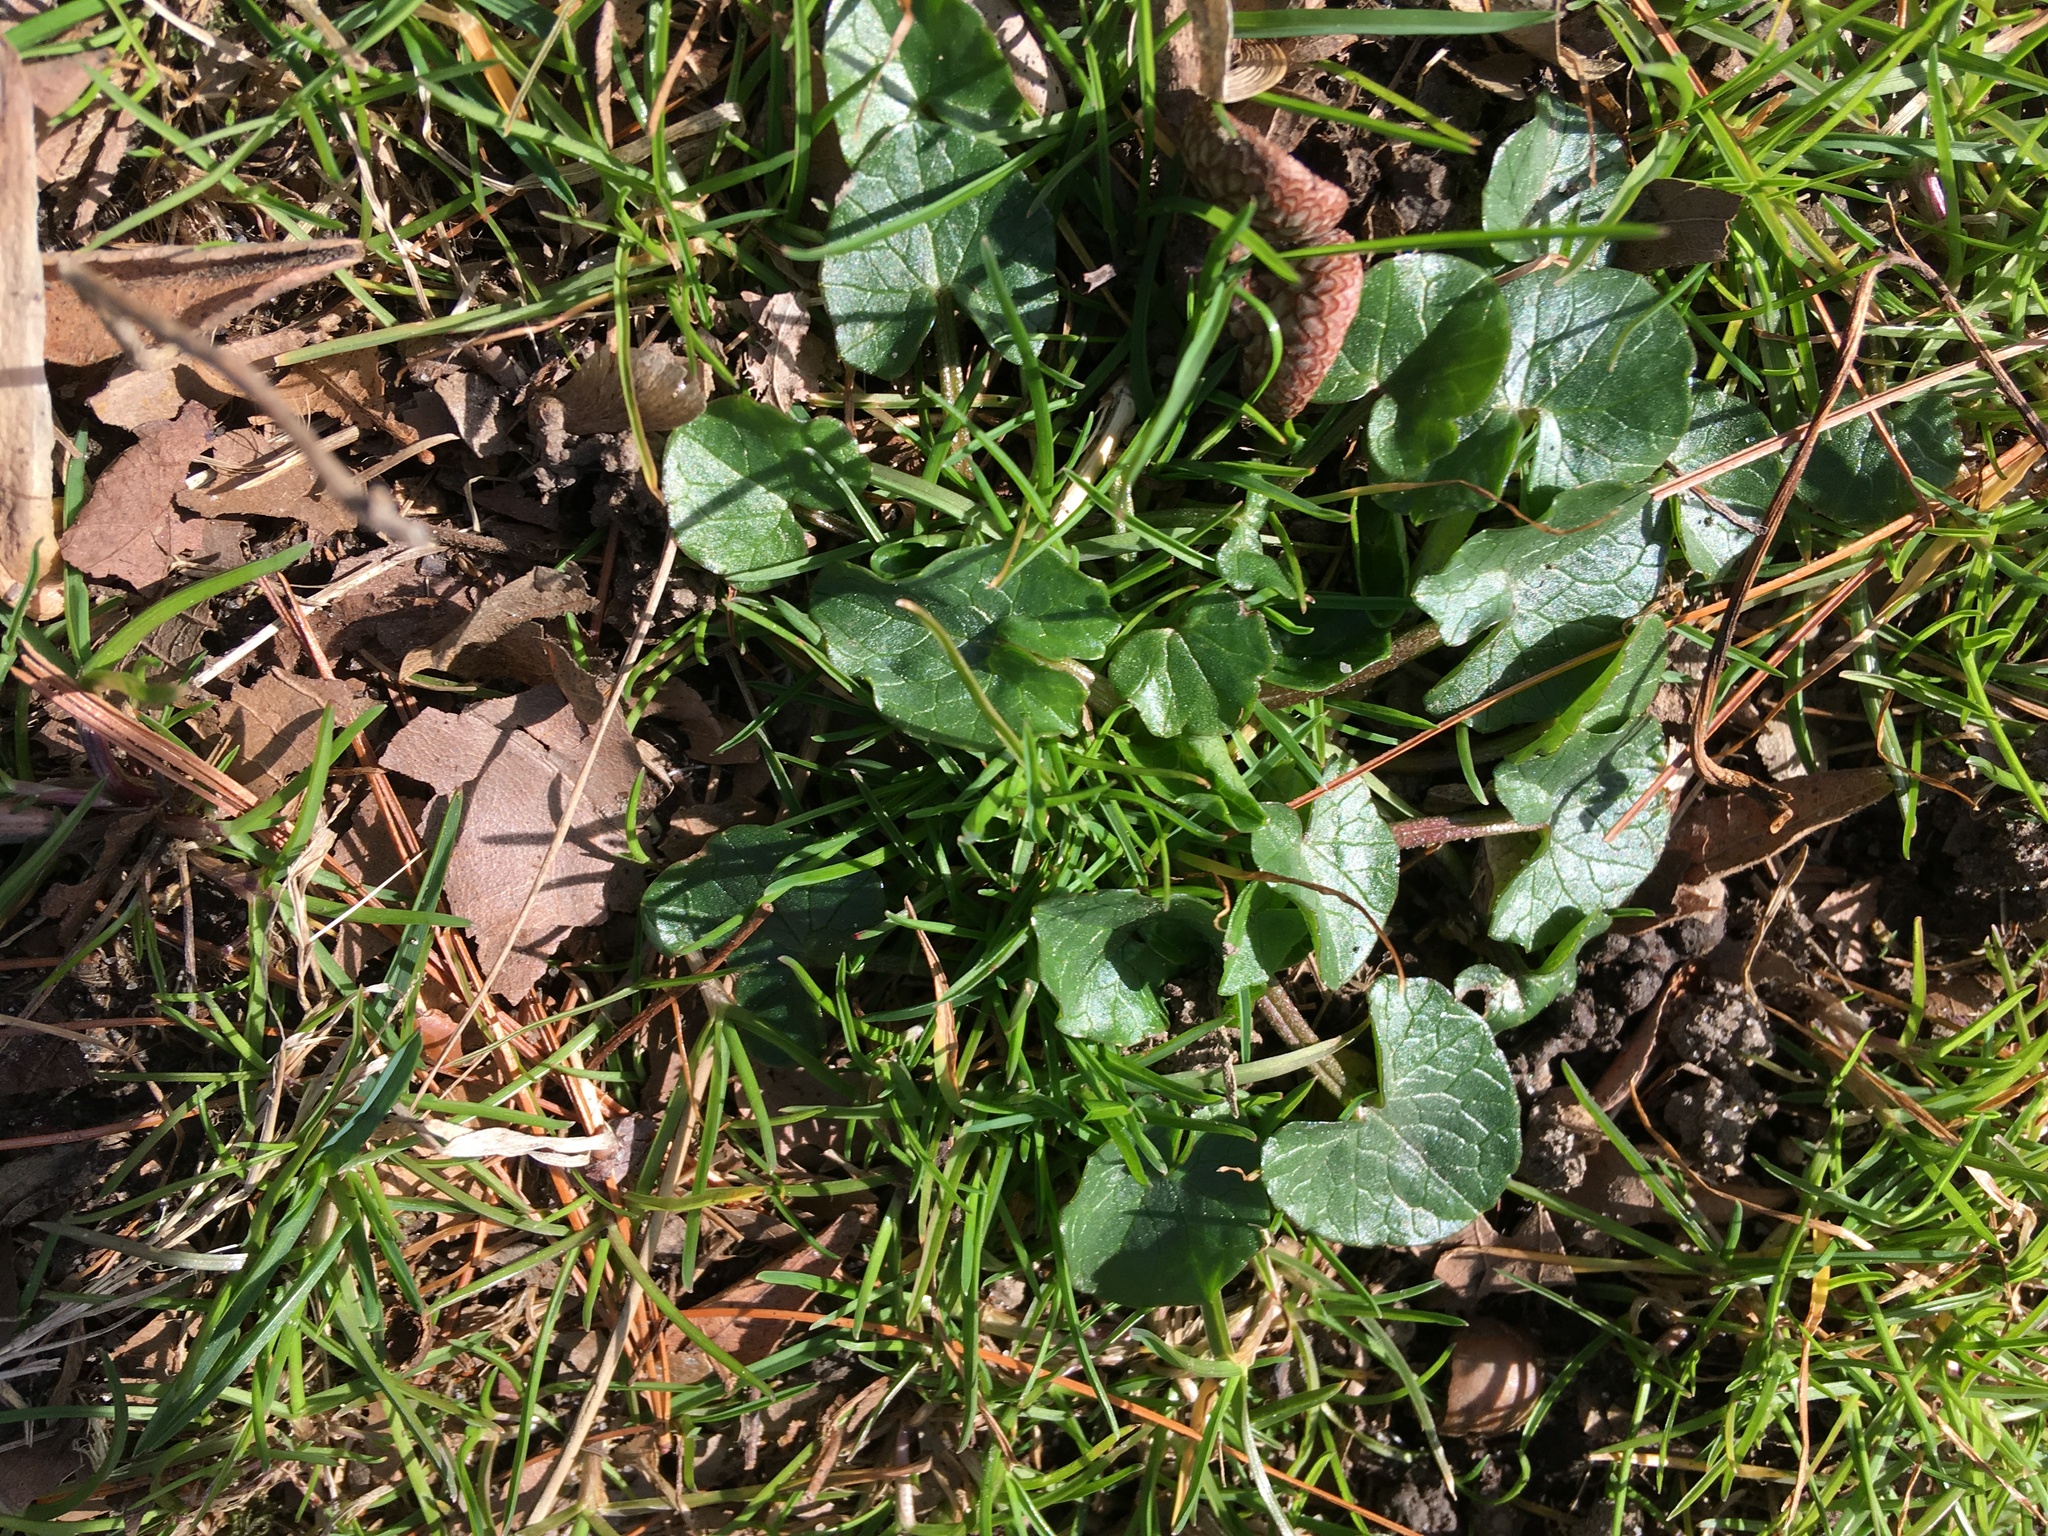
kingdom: Plantae
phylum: Tracheophyta
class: Magnoliopsida
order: Ranunculales
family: Ranunculaceae
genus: Ficaria
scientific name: Ficaria verna
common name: Lesser celandine
